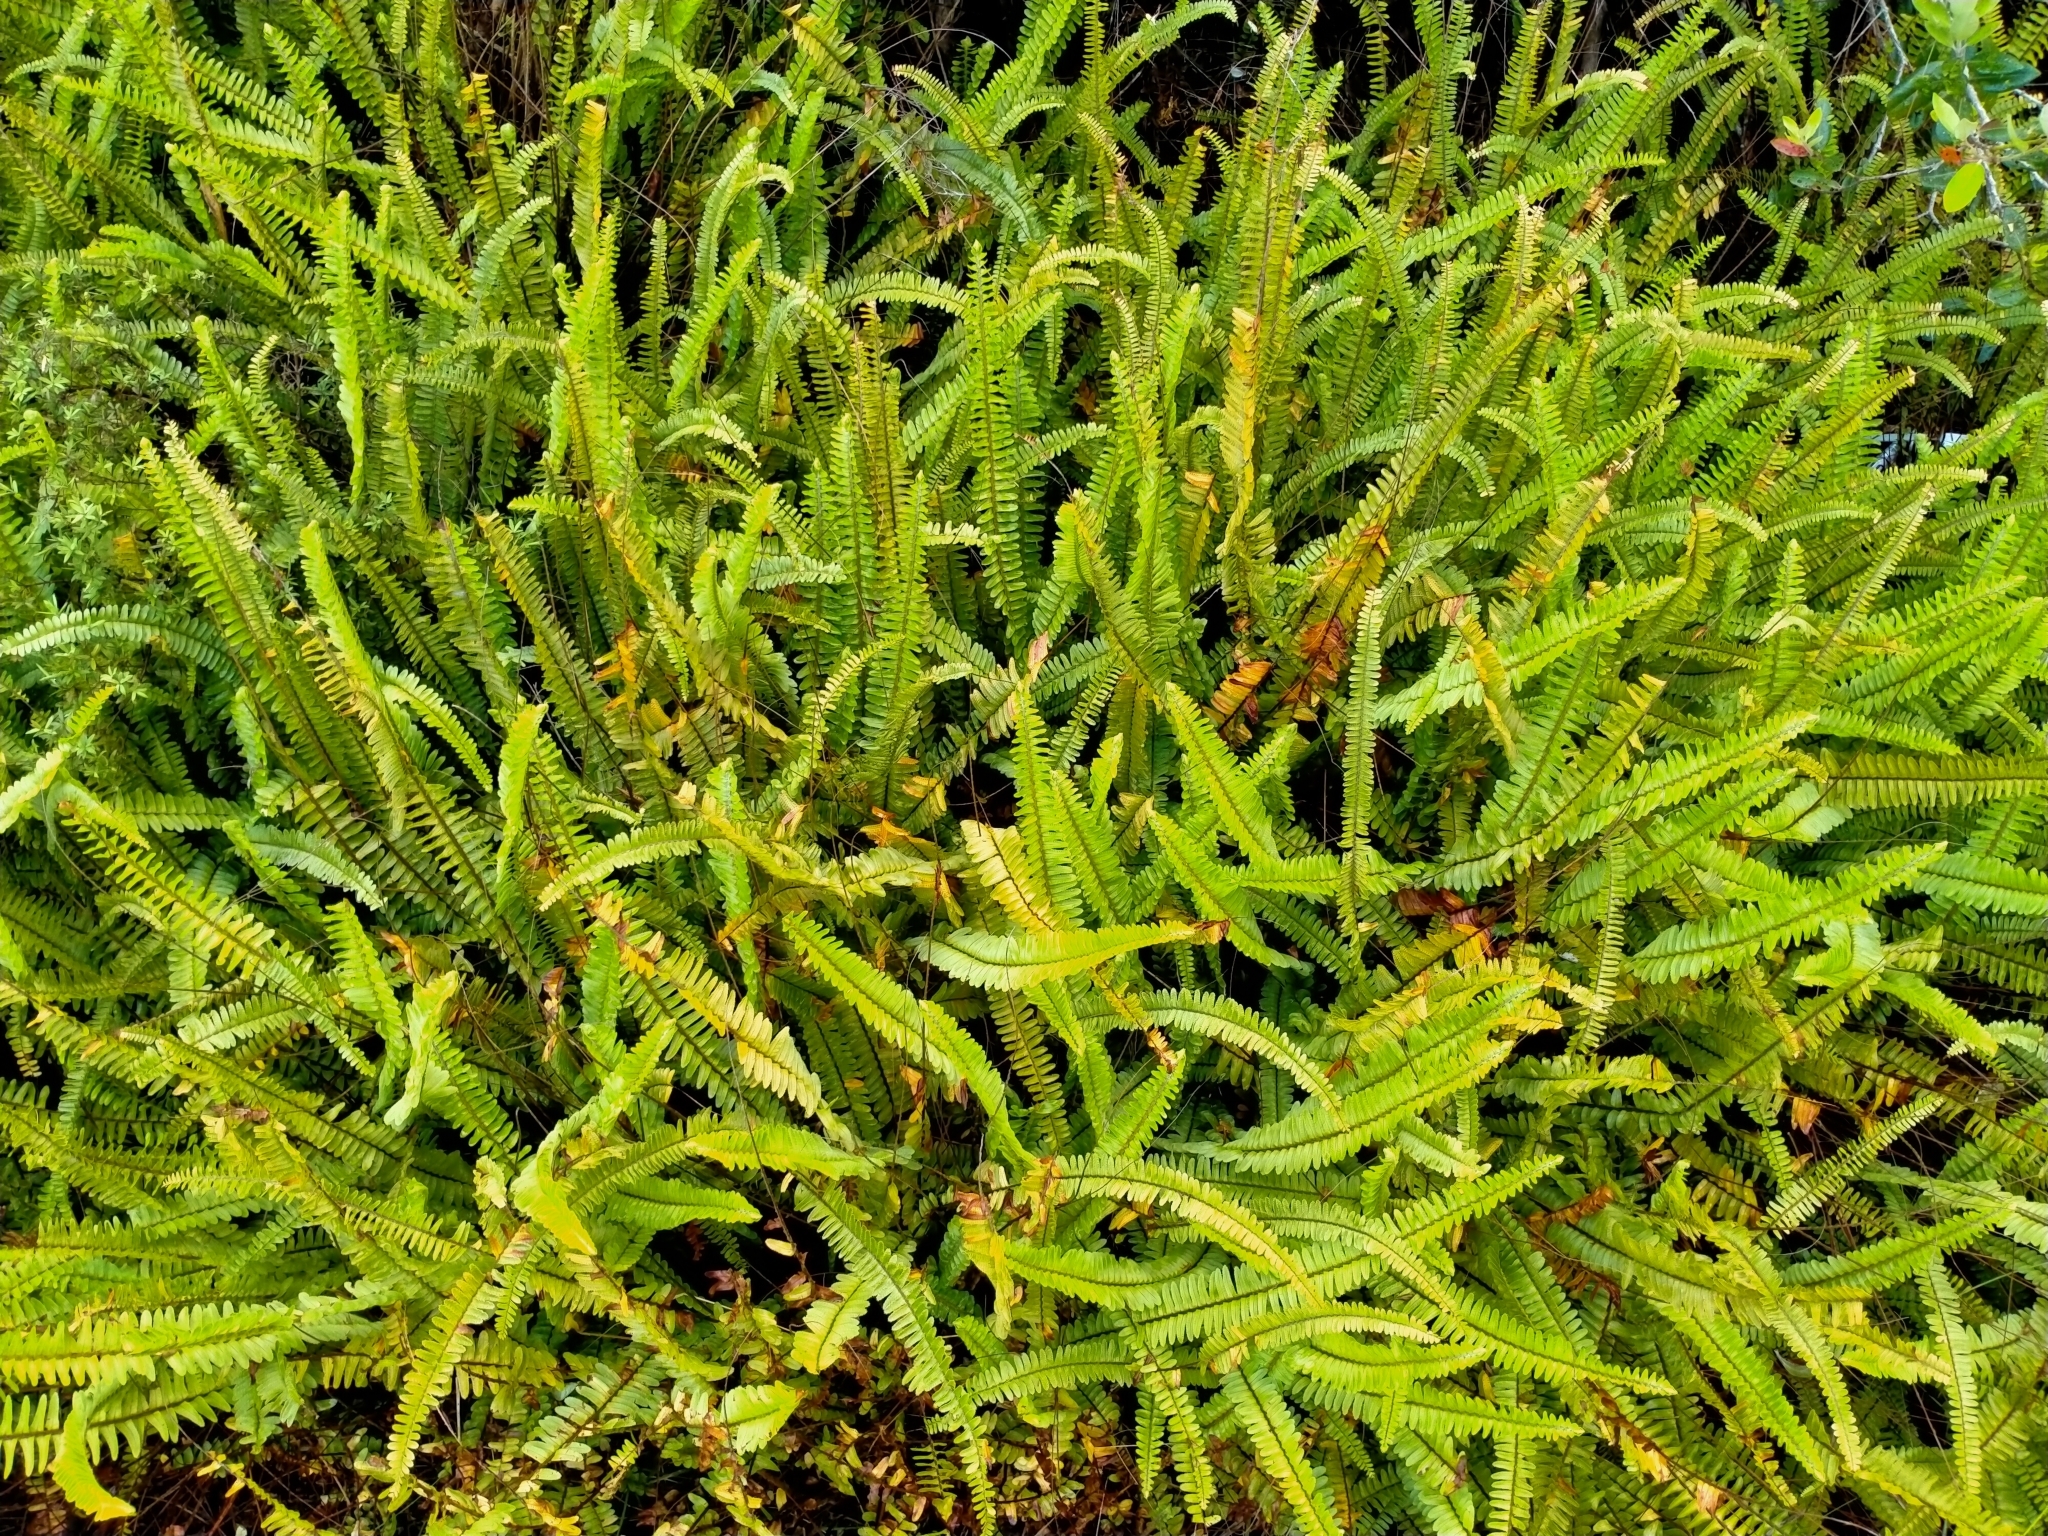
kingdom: Plantae
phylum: Tracheophyta
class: Polypodiopsida
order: Polypodiales
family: Nephrolepidaceae
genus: Nephrolepis
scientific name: Nephrolepis cordifolia
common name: Narrow swordfern
